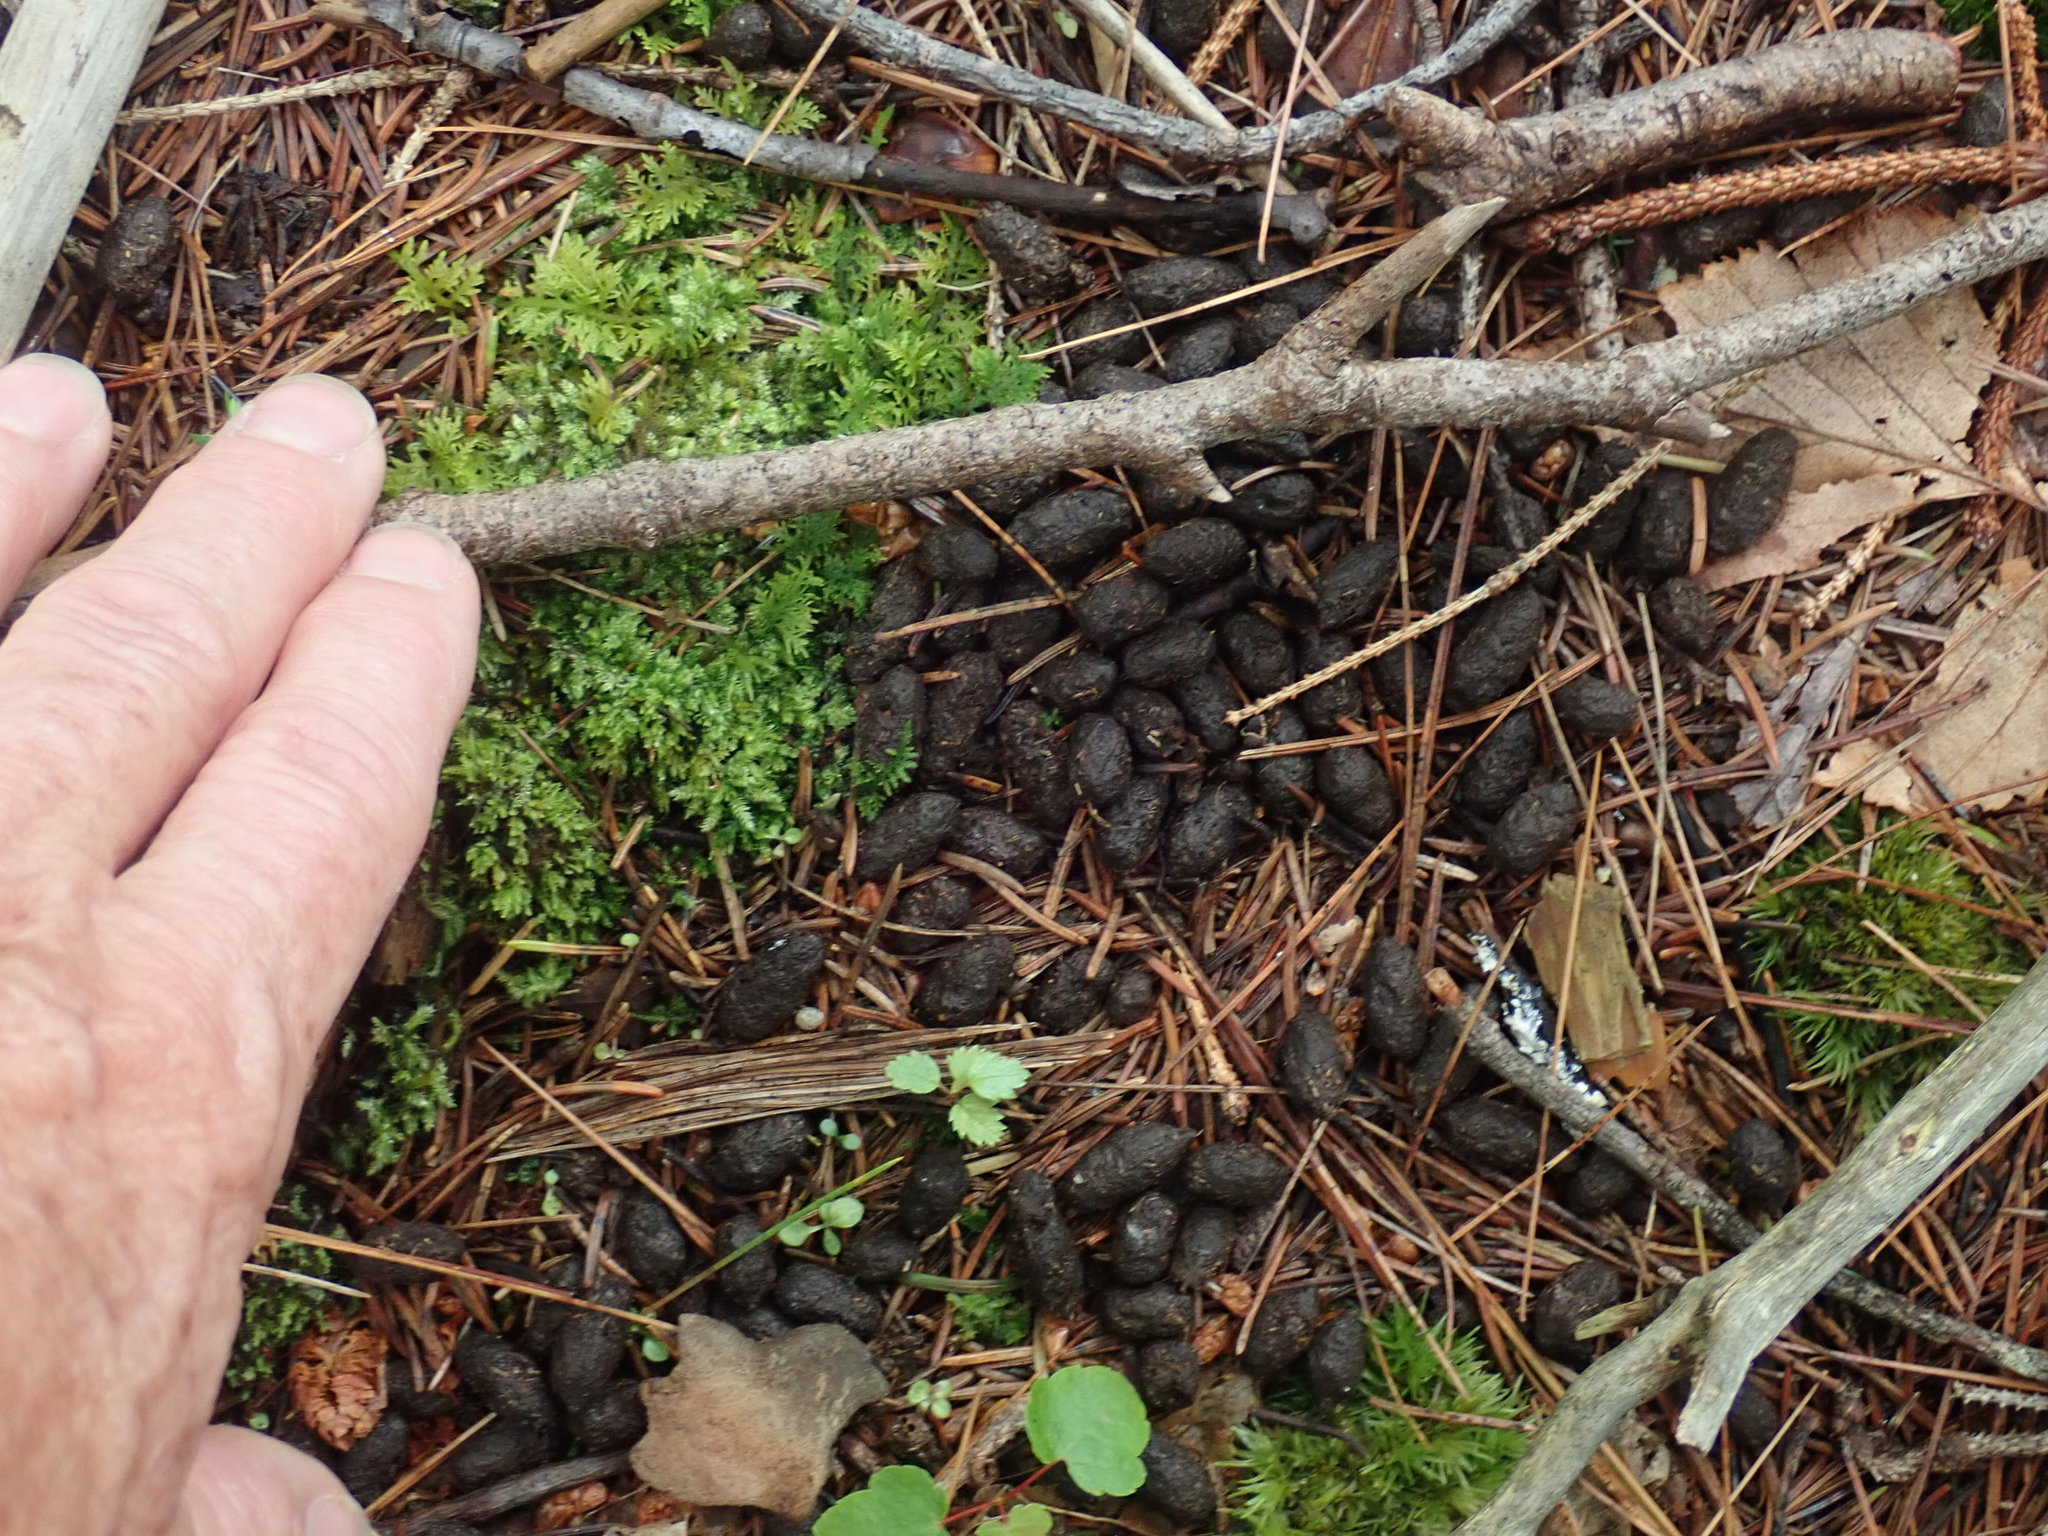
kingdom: Animalia
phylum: Chordata
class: Mammalia
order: Artiodactyla
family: Cervidae
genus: Odocoileus
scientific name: Odocoileus virginianus
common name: White-tailed deer
